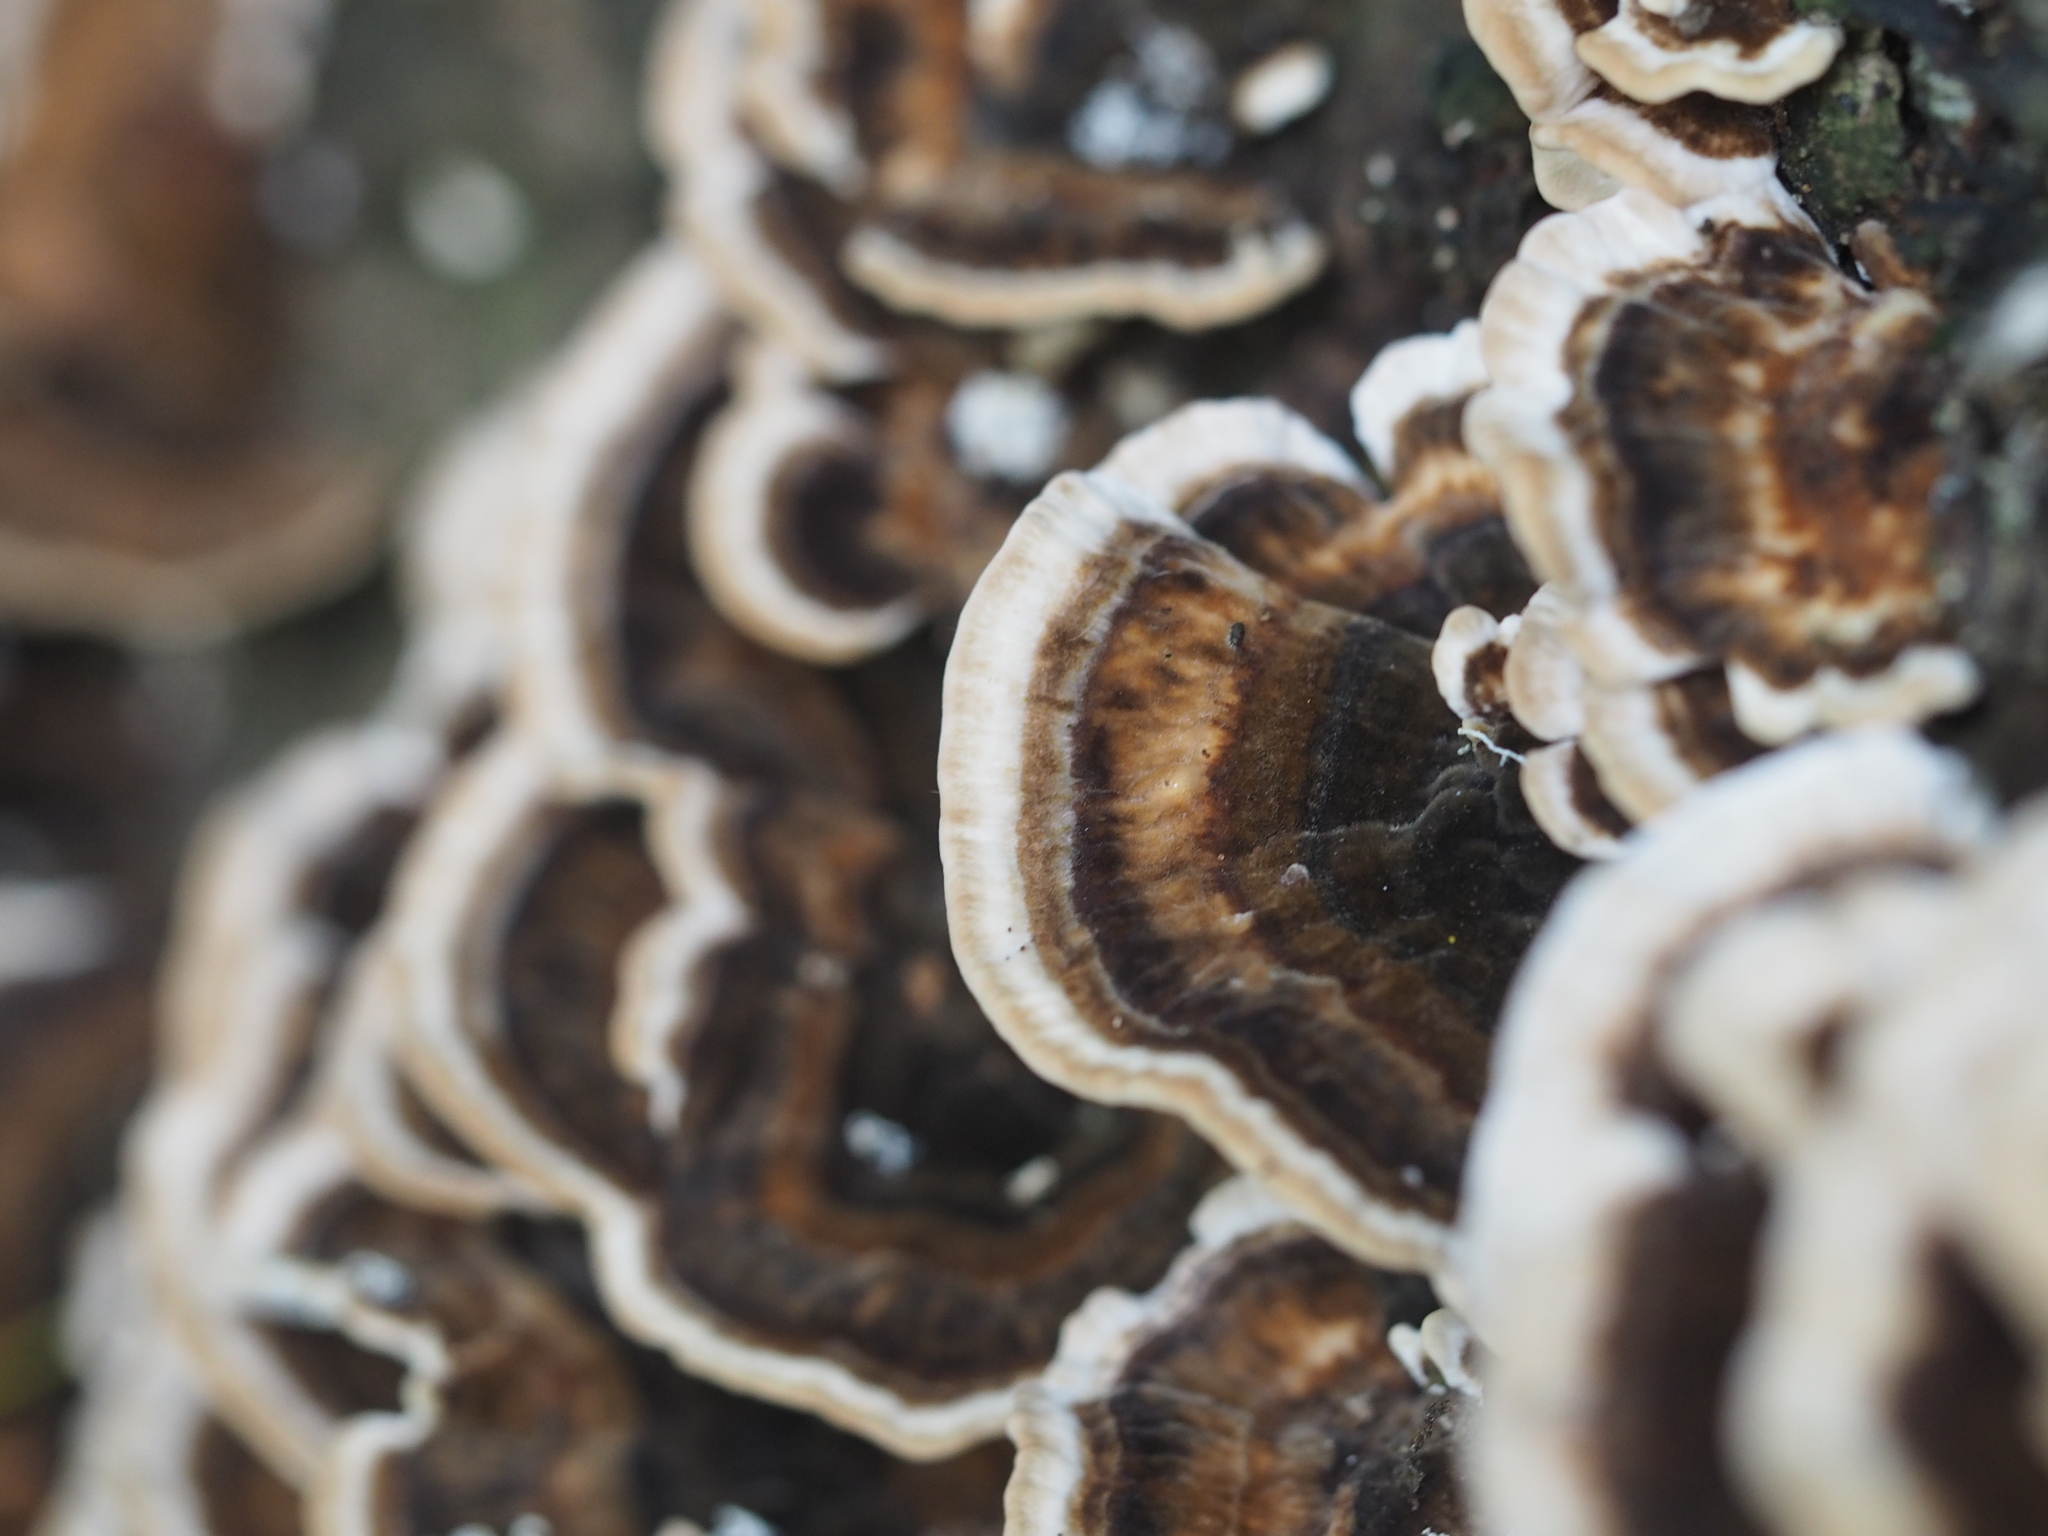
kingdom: Fungi
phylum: Basidiomycota
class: Agaricomycetes
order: Polyporales
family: Phanerochaetaceae
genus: Bjerkandera
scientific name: Bjerkandera adusta
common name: Smoky bracket
